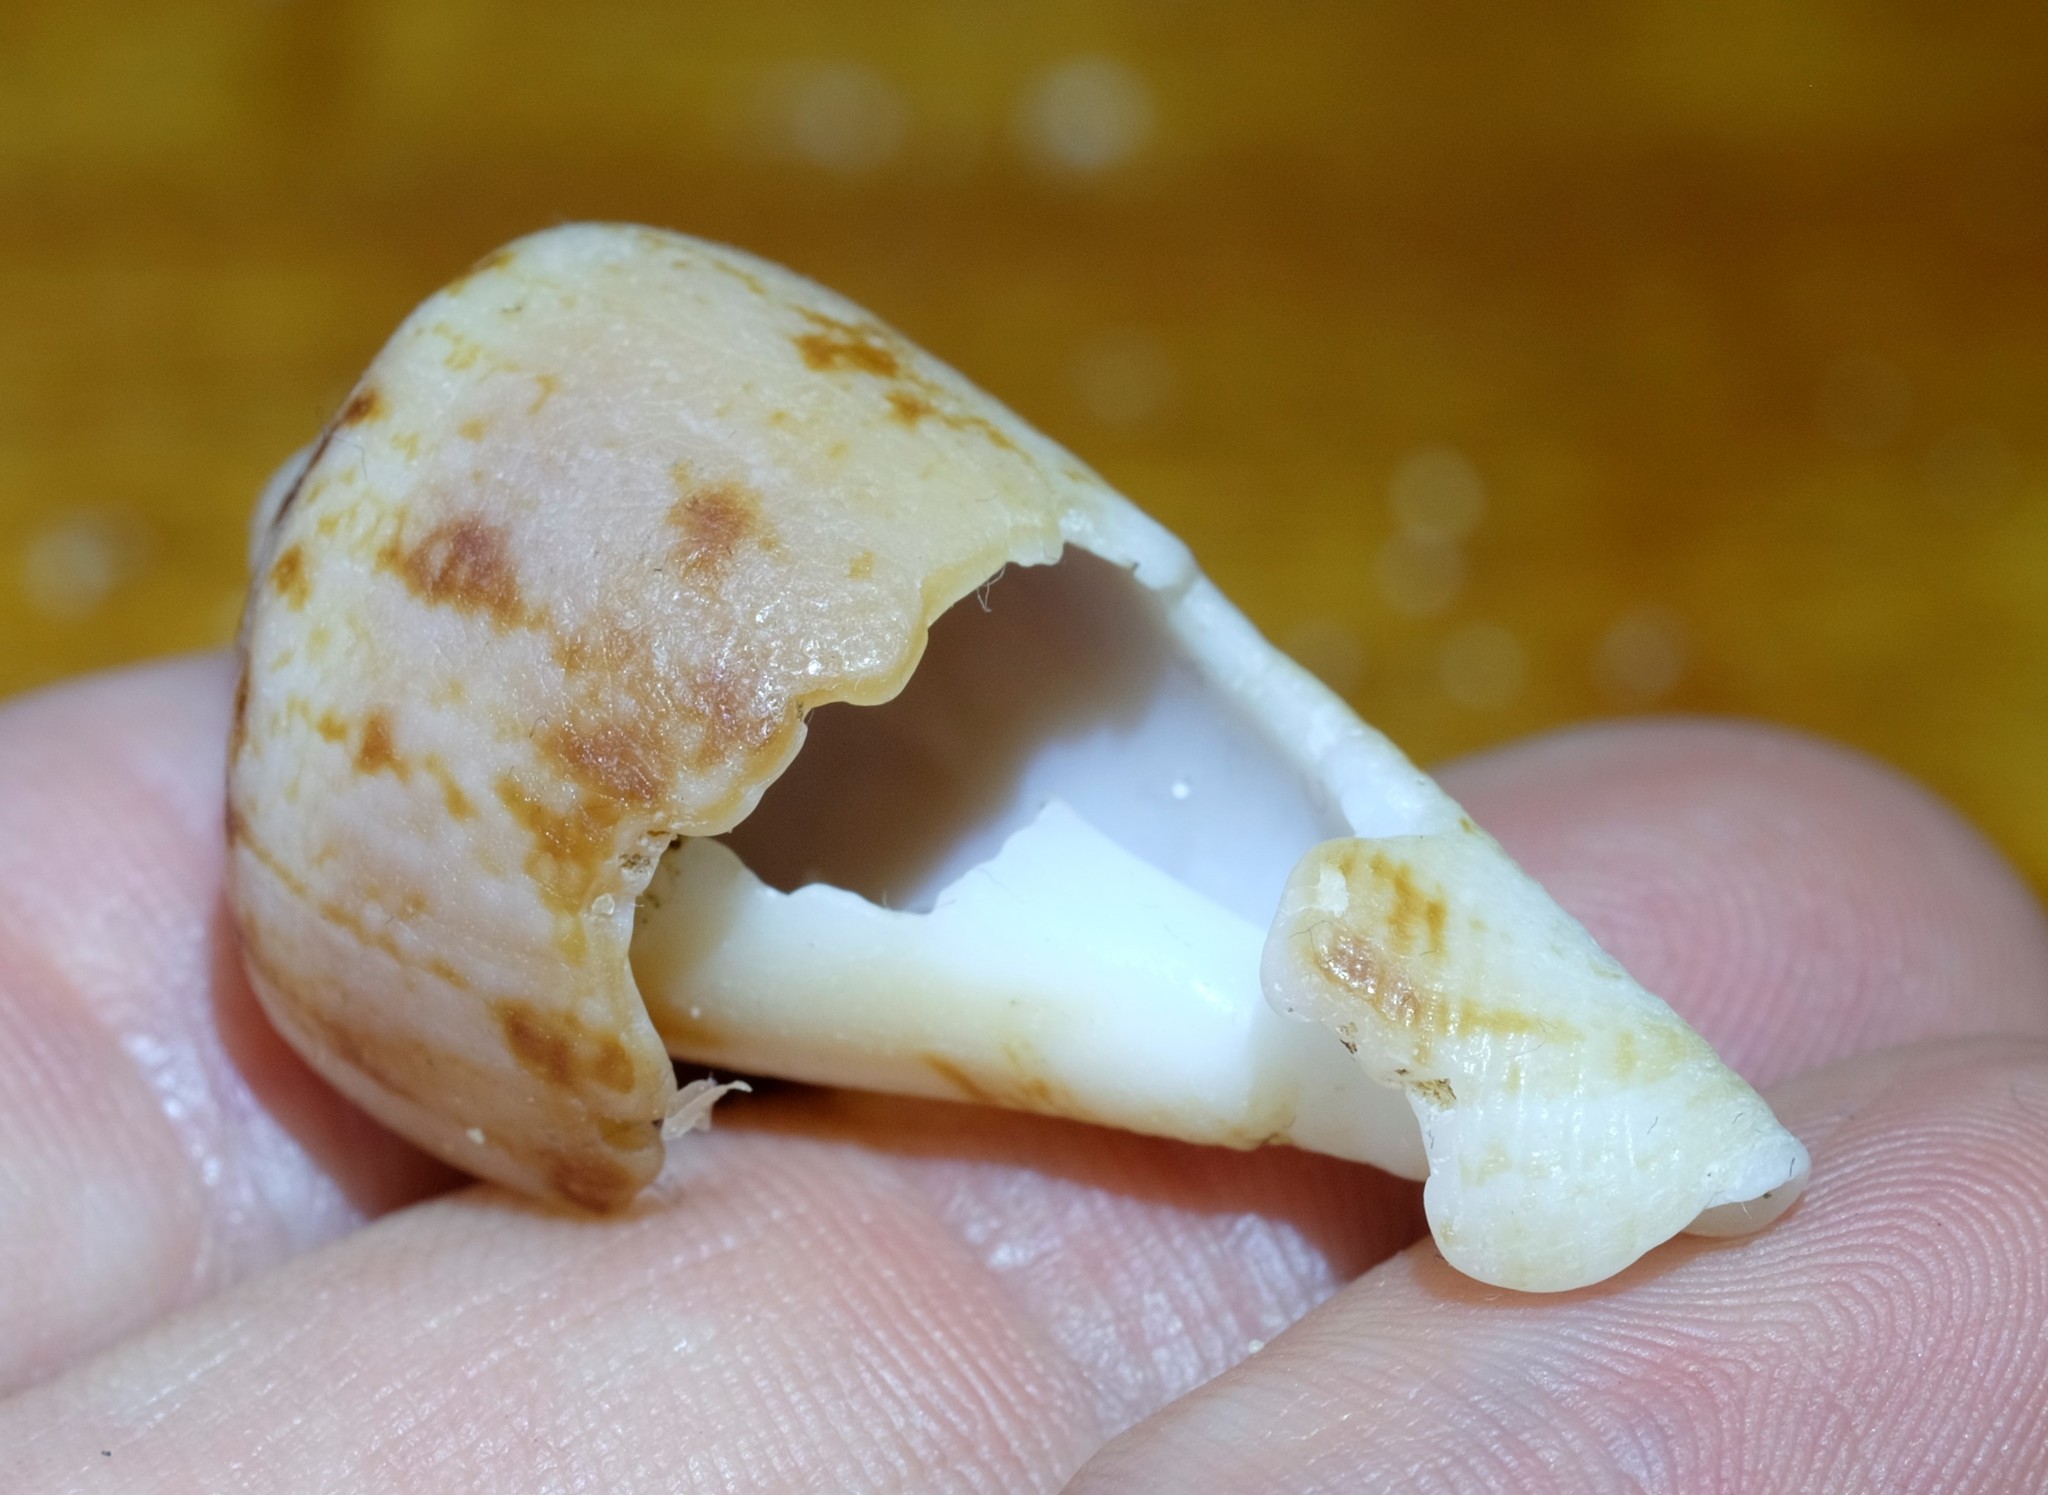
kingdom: Animalia
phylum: Mollusca
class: Gastropoda
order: Neogastropoda
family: Conidae
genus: Conus
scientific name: Conus anemone
